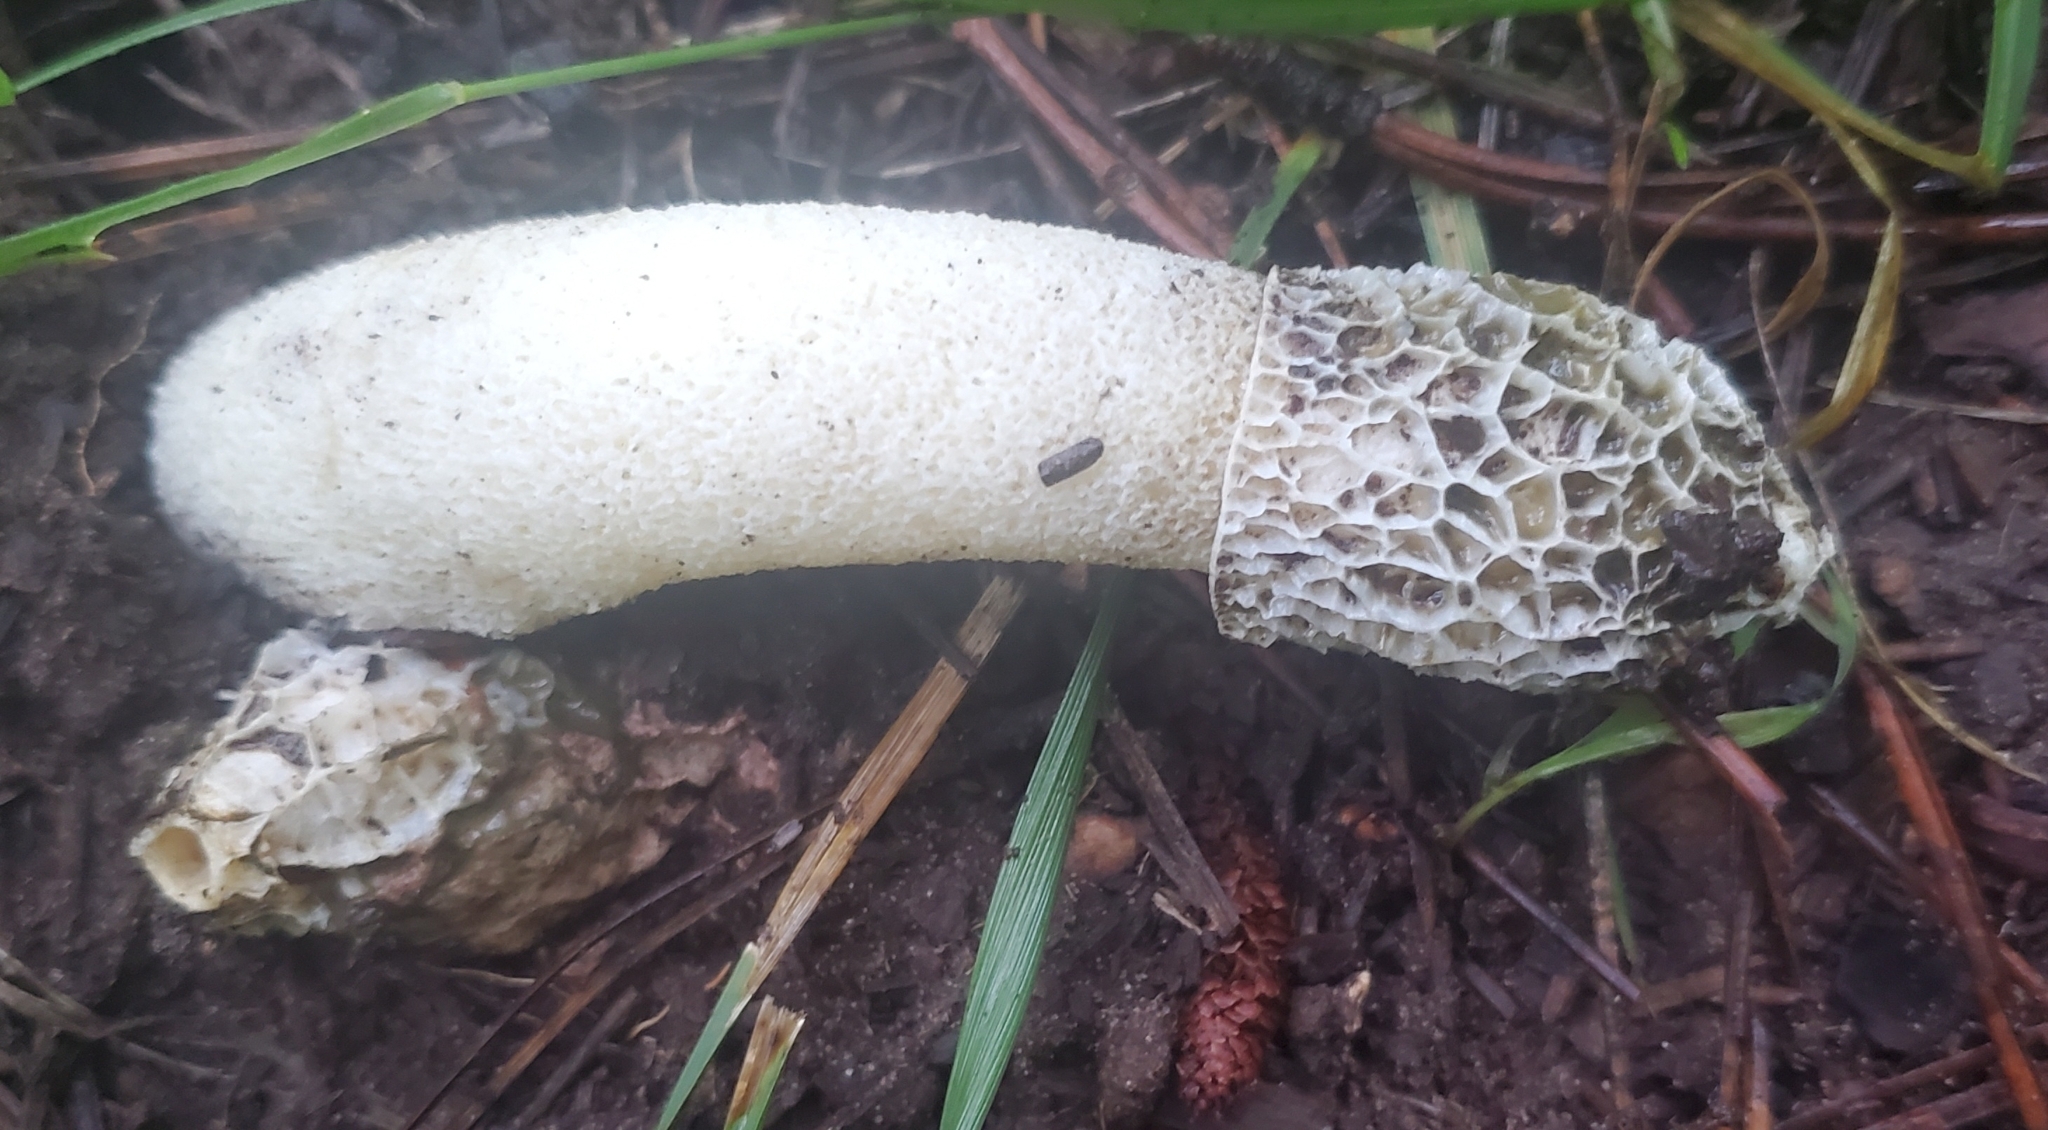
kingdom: Fungi
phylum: Basidiomycota
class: Agaricomycetes
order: Phallales
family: Phallaceae
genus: Phallus
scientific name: Phallus impudicus
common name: Common stinkhorn
